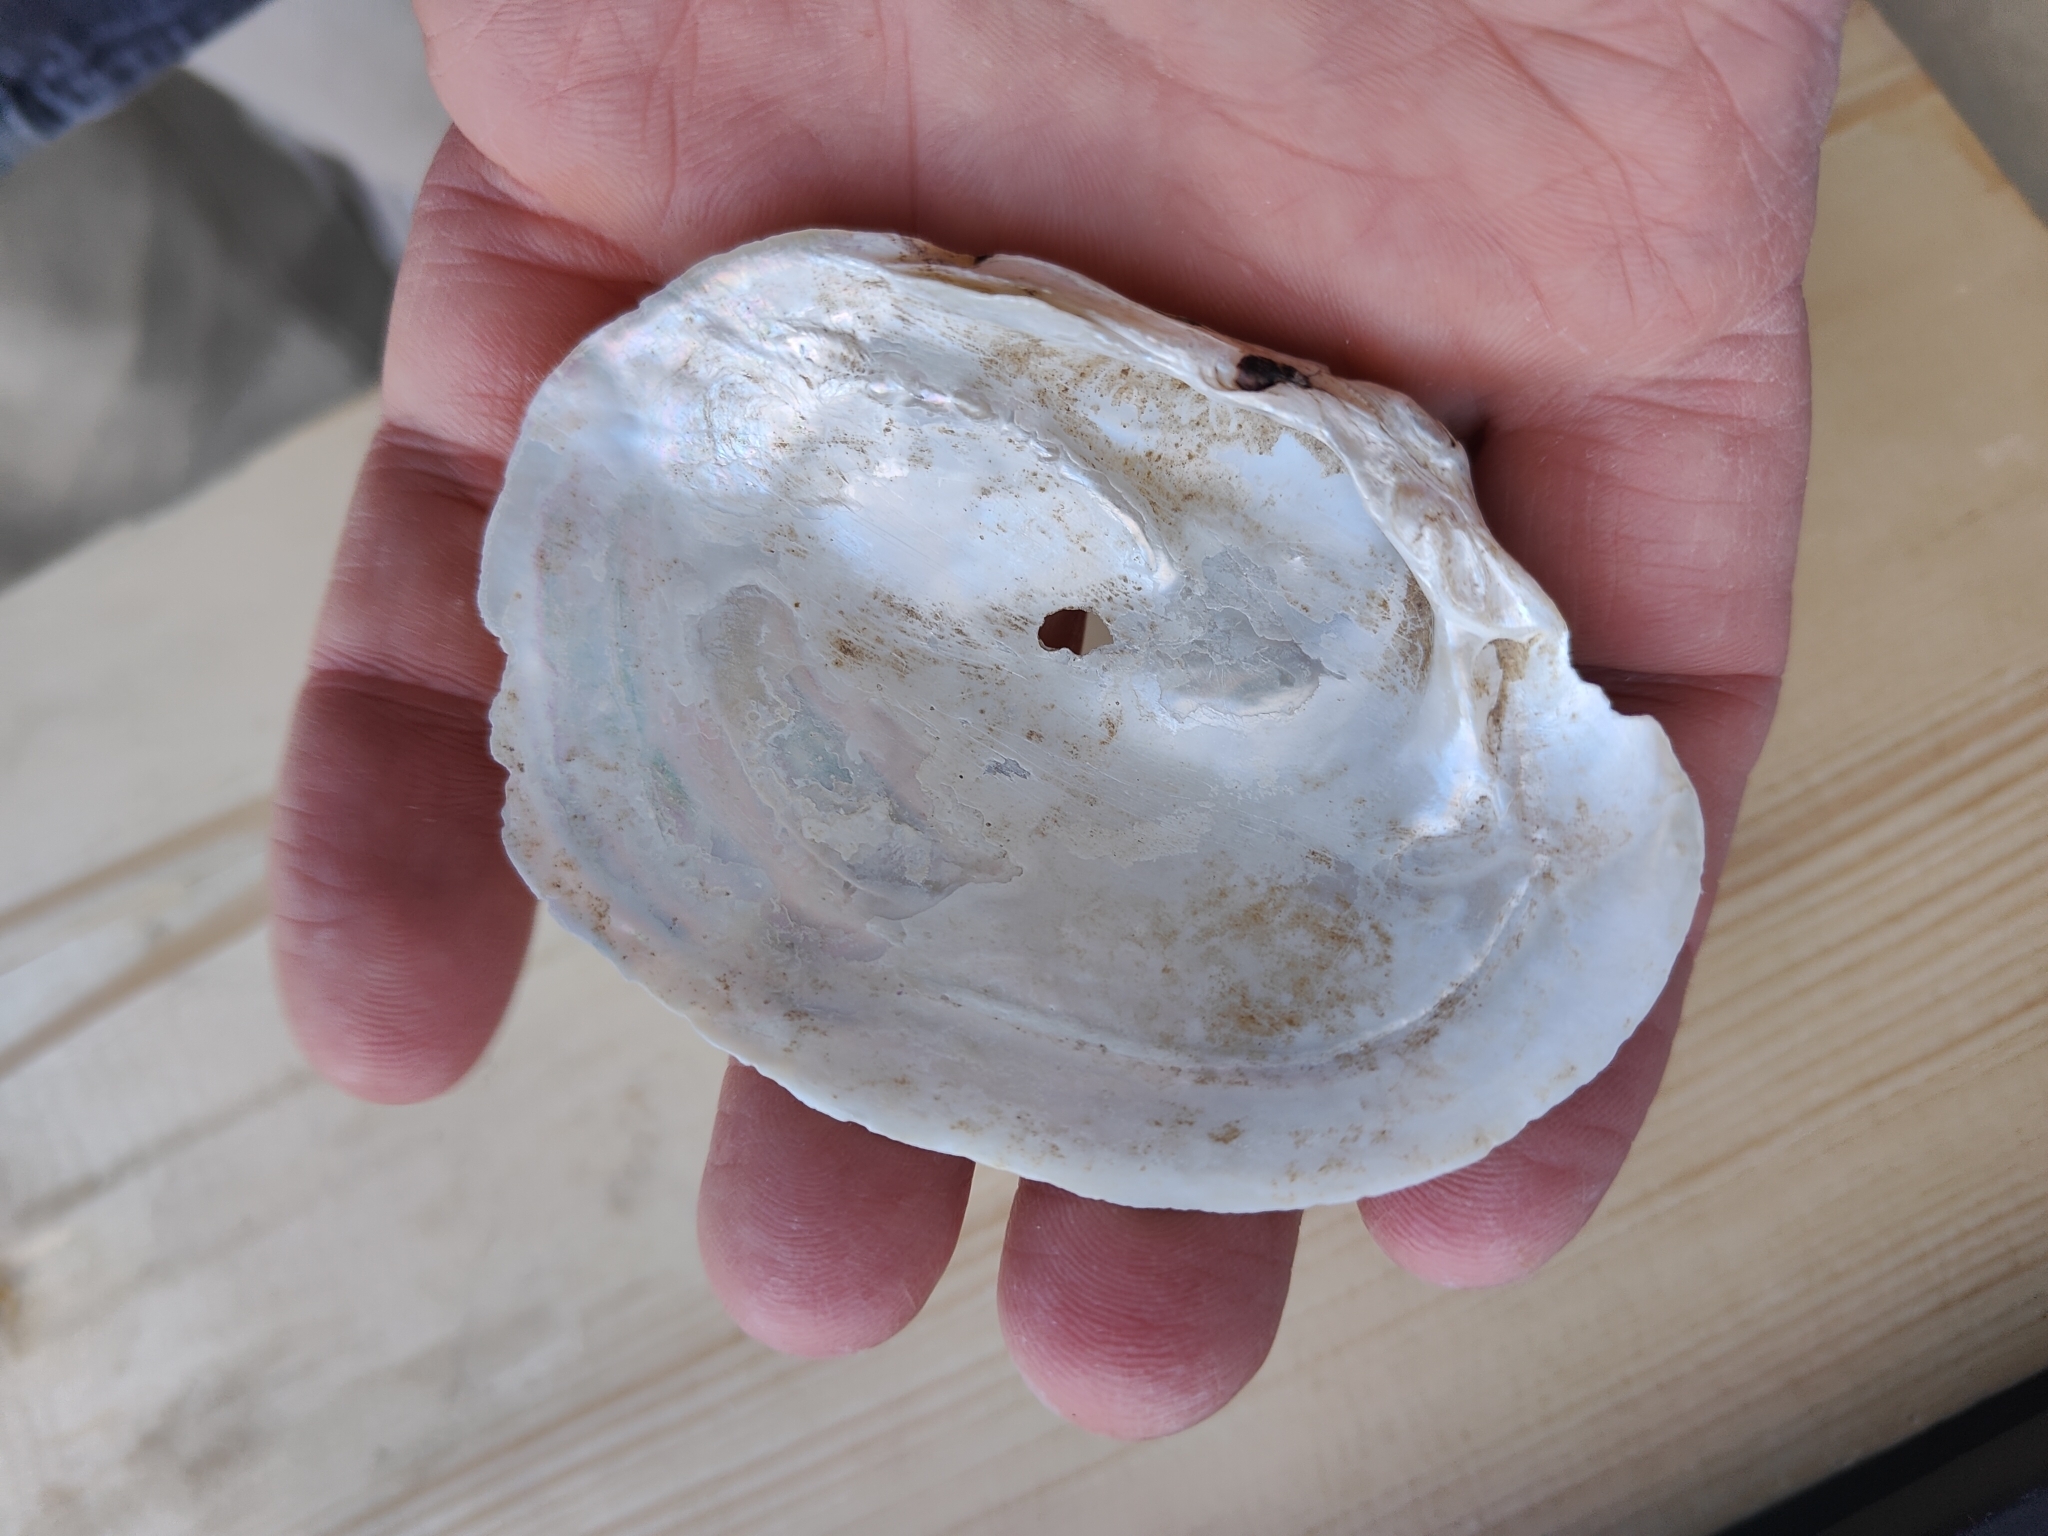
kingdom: Animalia
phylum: Mollusca
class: Bivalvia
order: Unionida
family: Unionidae
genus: Lampsilis
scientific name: Lampsilis cardium
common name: Plain pocketbook
